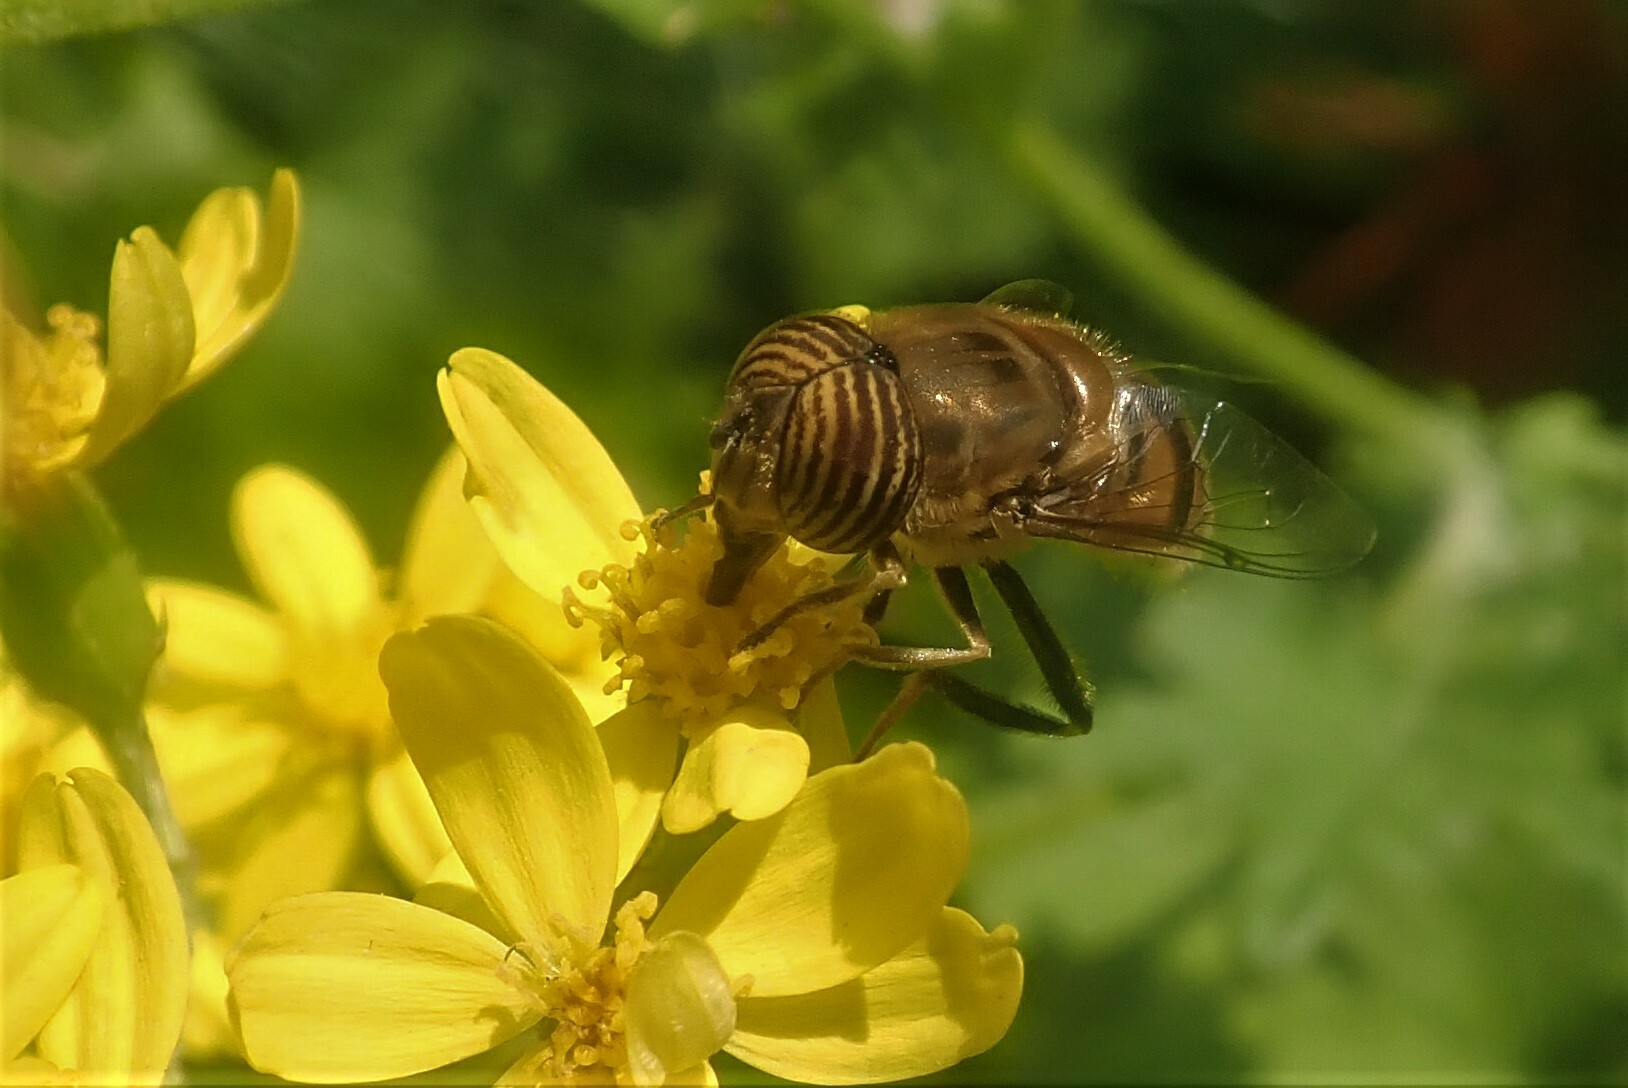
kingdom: Animalia
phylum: Arthropoda
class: Insecta
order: Diptera
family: Syrphidae
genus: Eristalinus
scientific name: Eristalinus taeniops
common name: Syrphid fly
